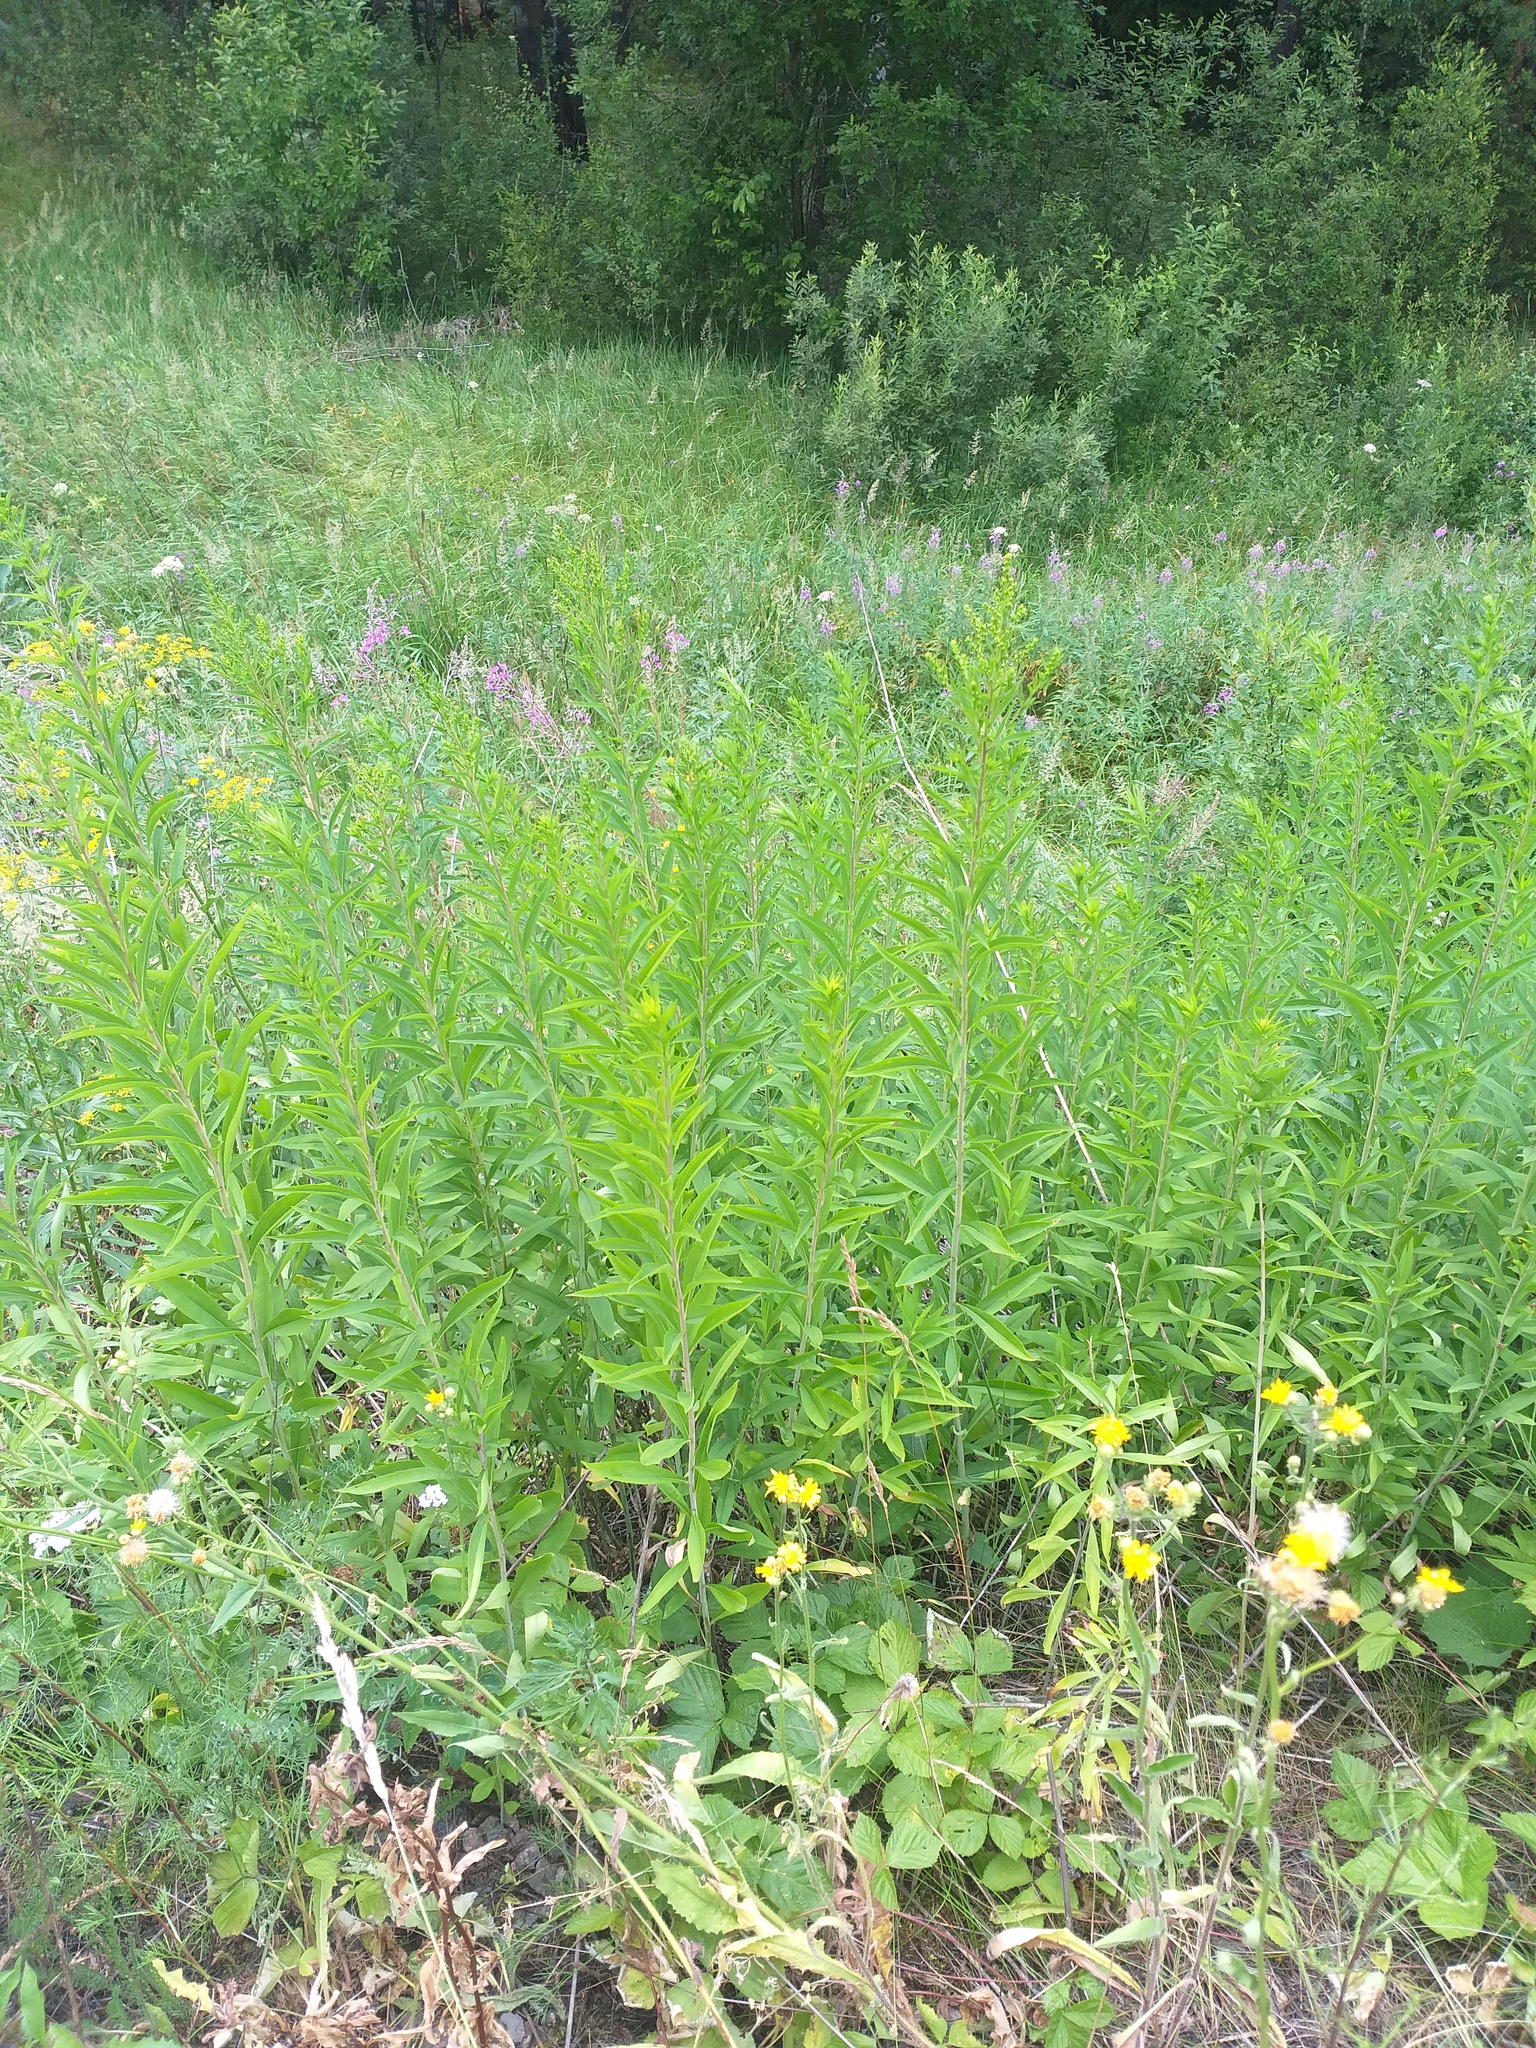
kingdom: Plantae
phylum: Tracheophyta
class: Magnoliopsida
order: Asterales
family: Asteraceae
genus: Solidago
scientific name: Solidago gigantea
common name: Giant goldenrod
